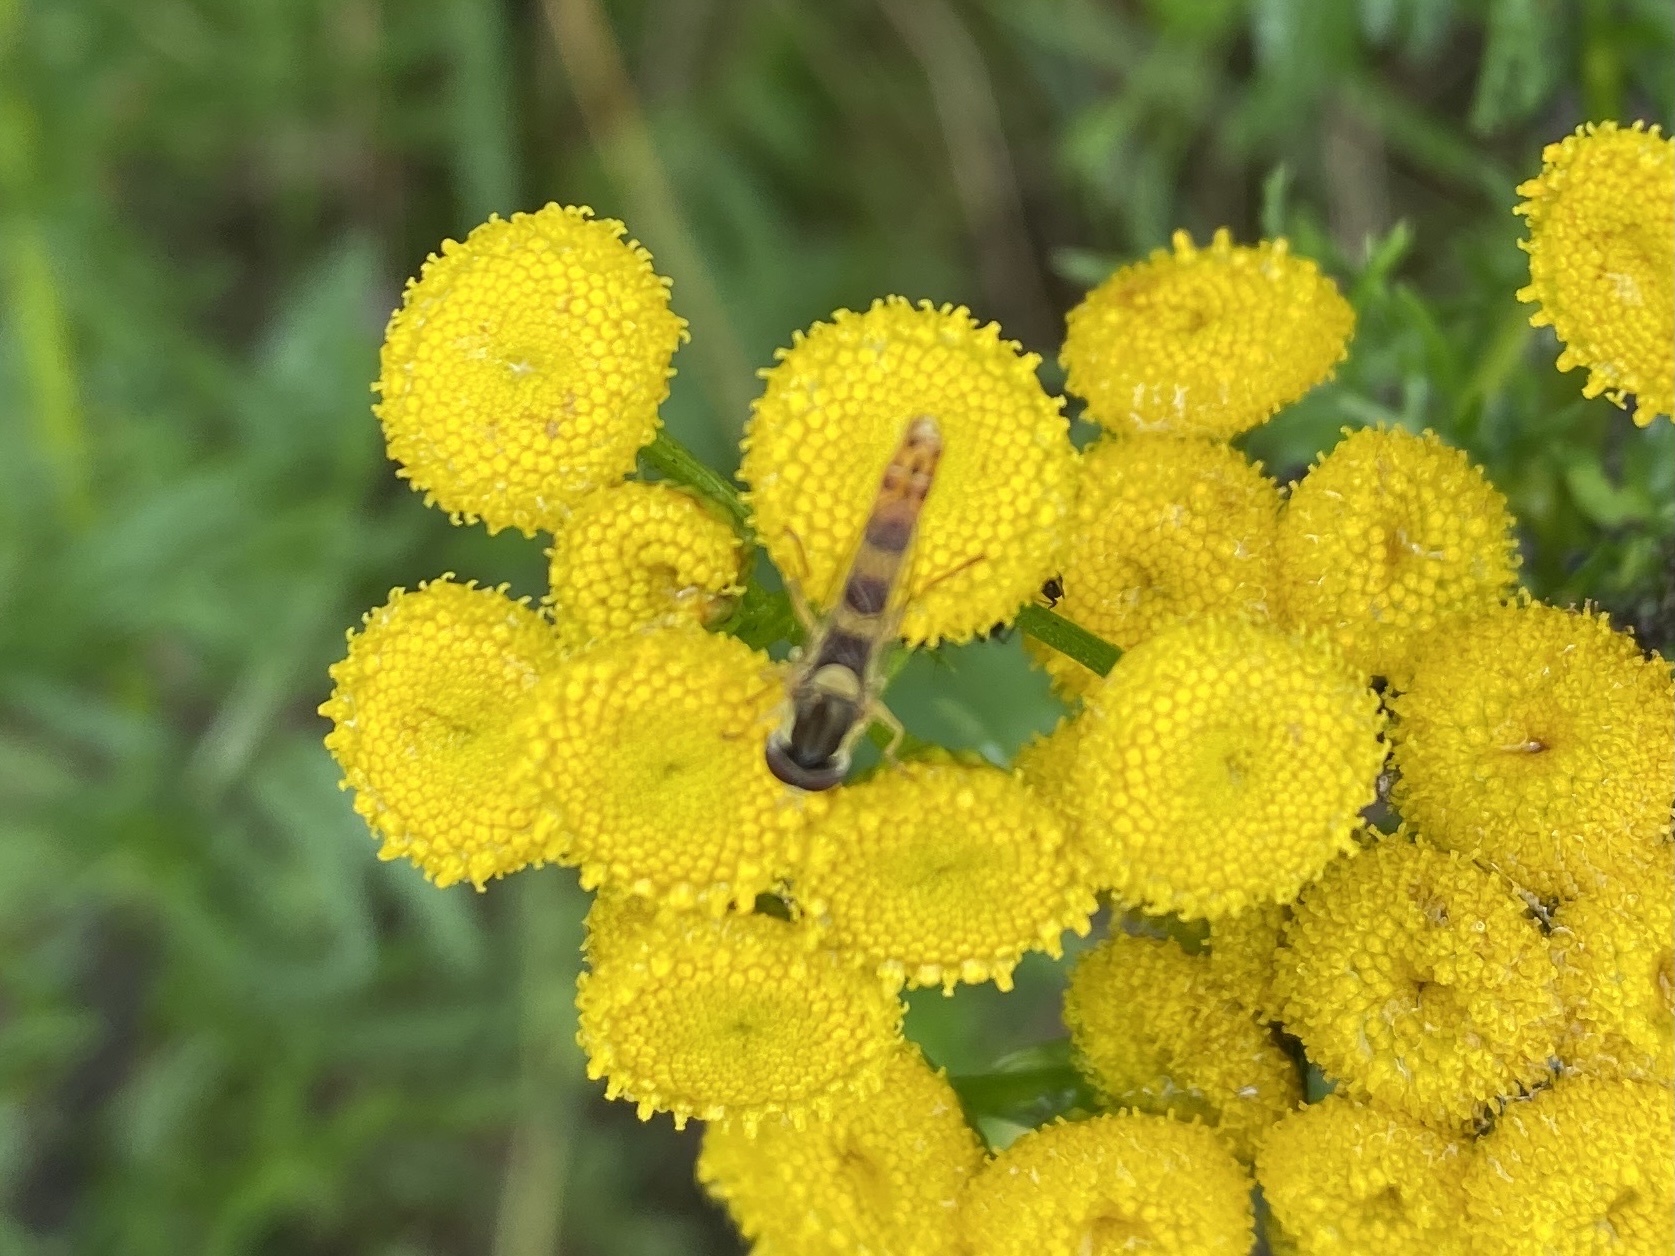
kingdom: Animalia
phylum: Arthropoda
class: Insecta
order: Diptera
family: Syrphidae
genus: Sphaerophoria
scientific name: Sphaerophoria scripta
